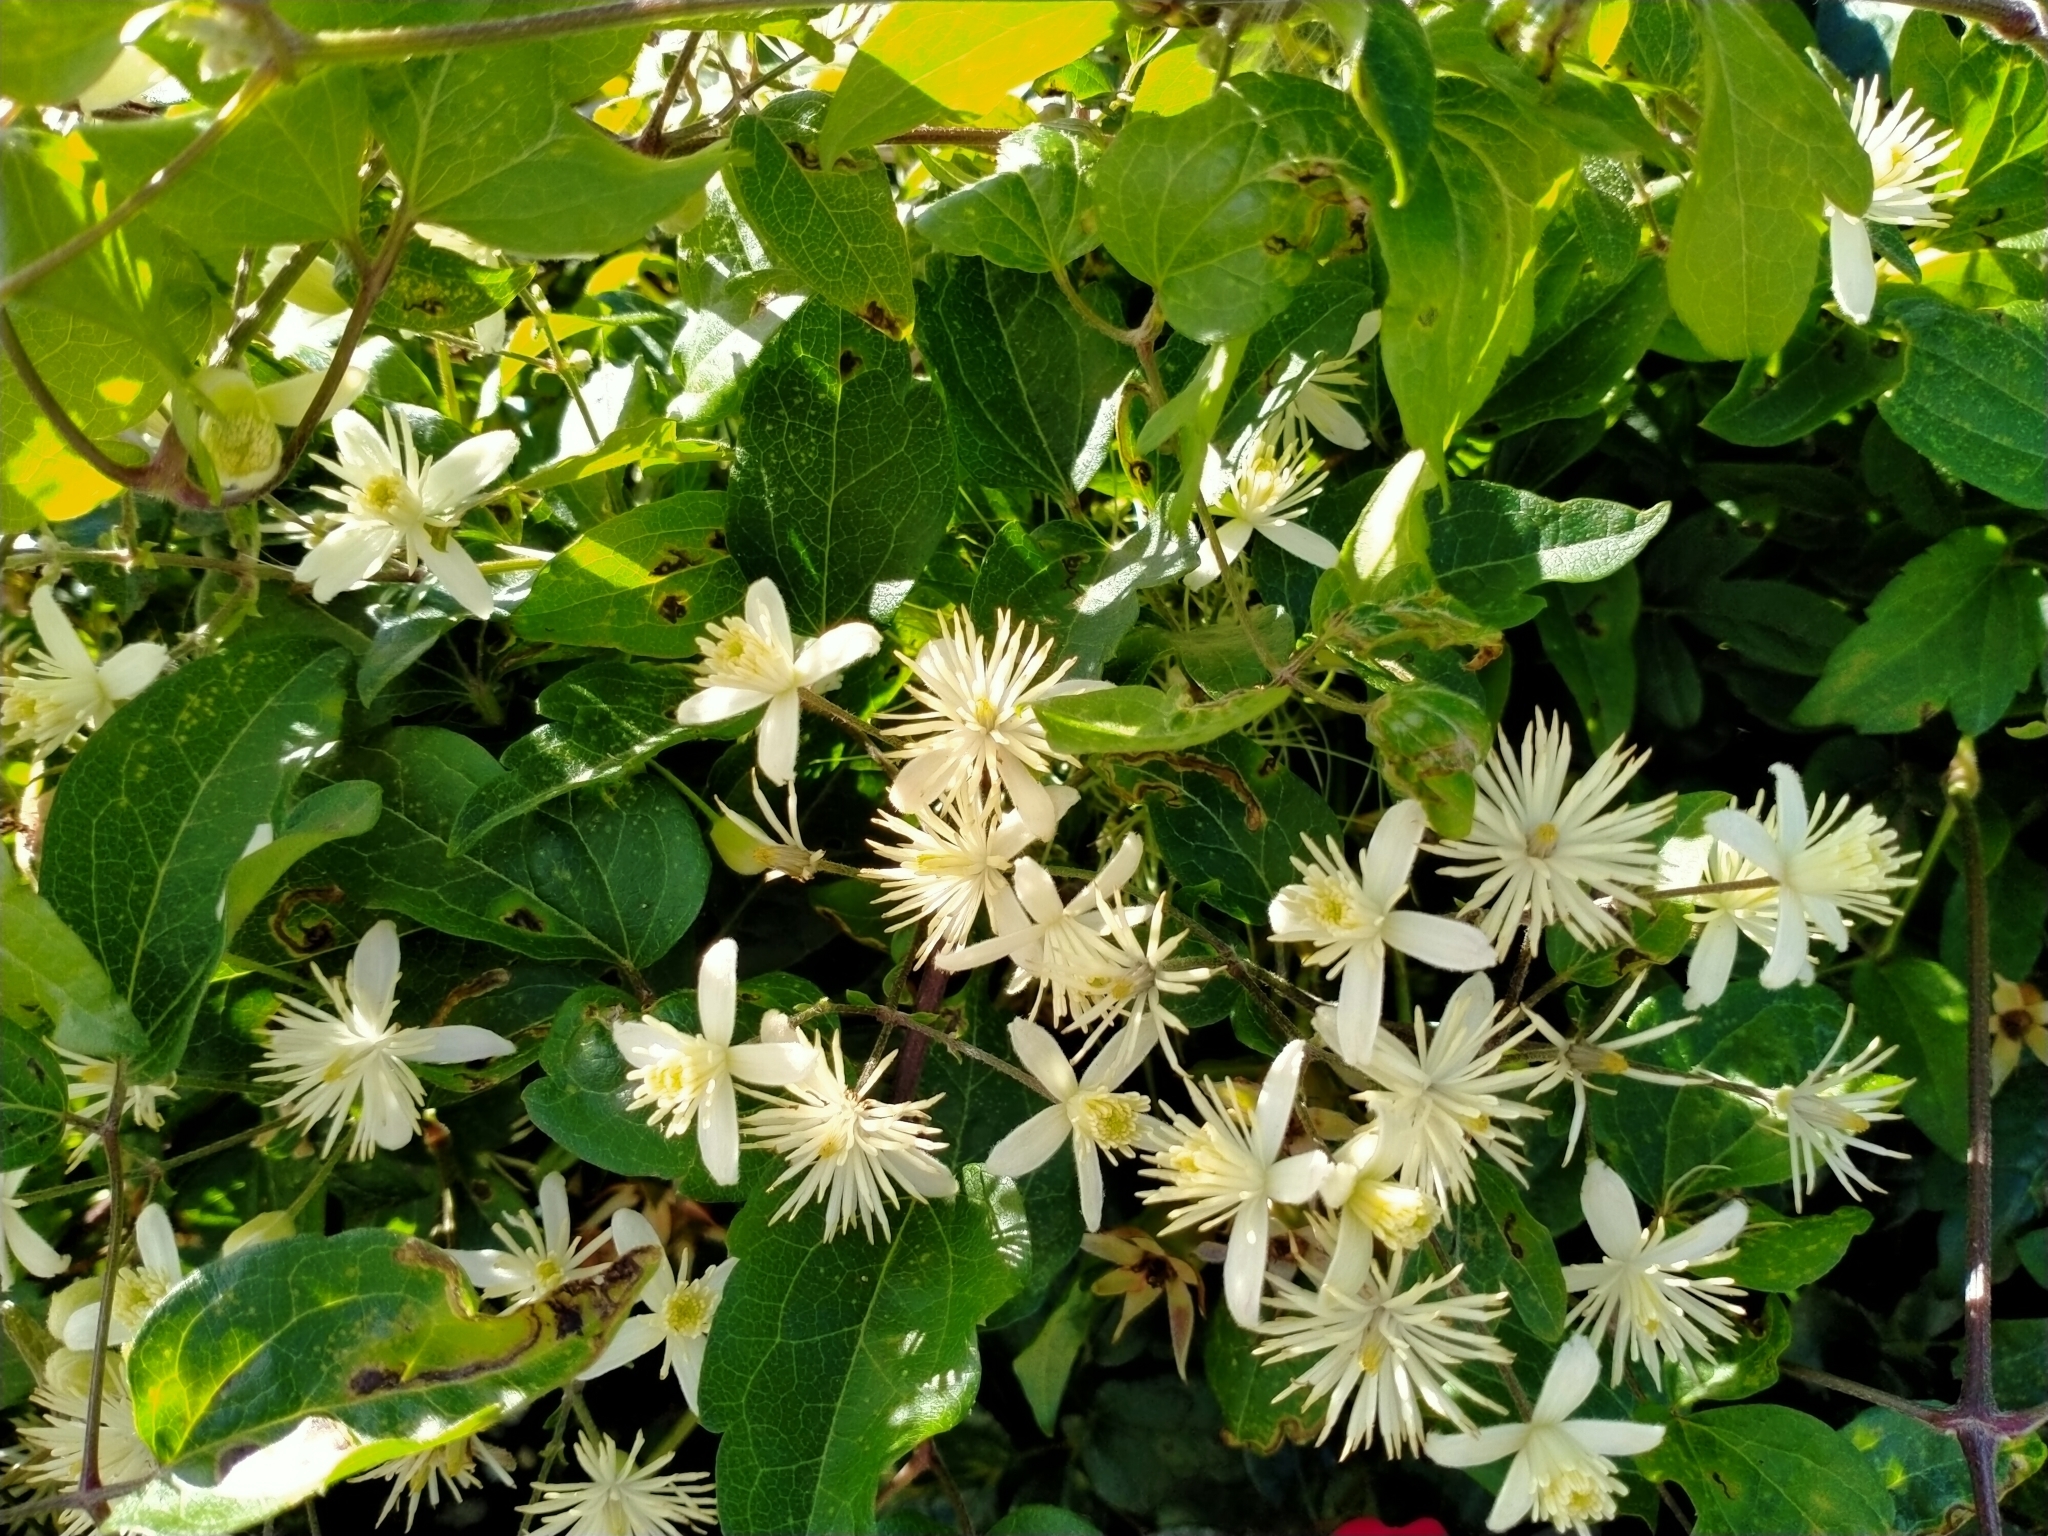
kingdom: Plantae
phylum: Tracheophyta
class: Magnoliopsida
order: Ranunculales
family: Ranunculaceae
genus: Clematis
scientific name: Clematis vitalba
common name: Evergreen clematis
